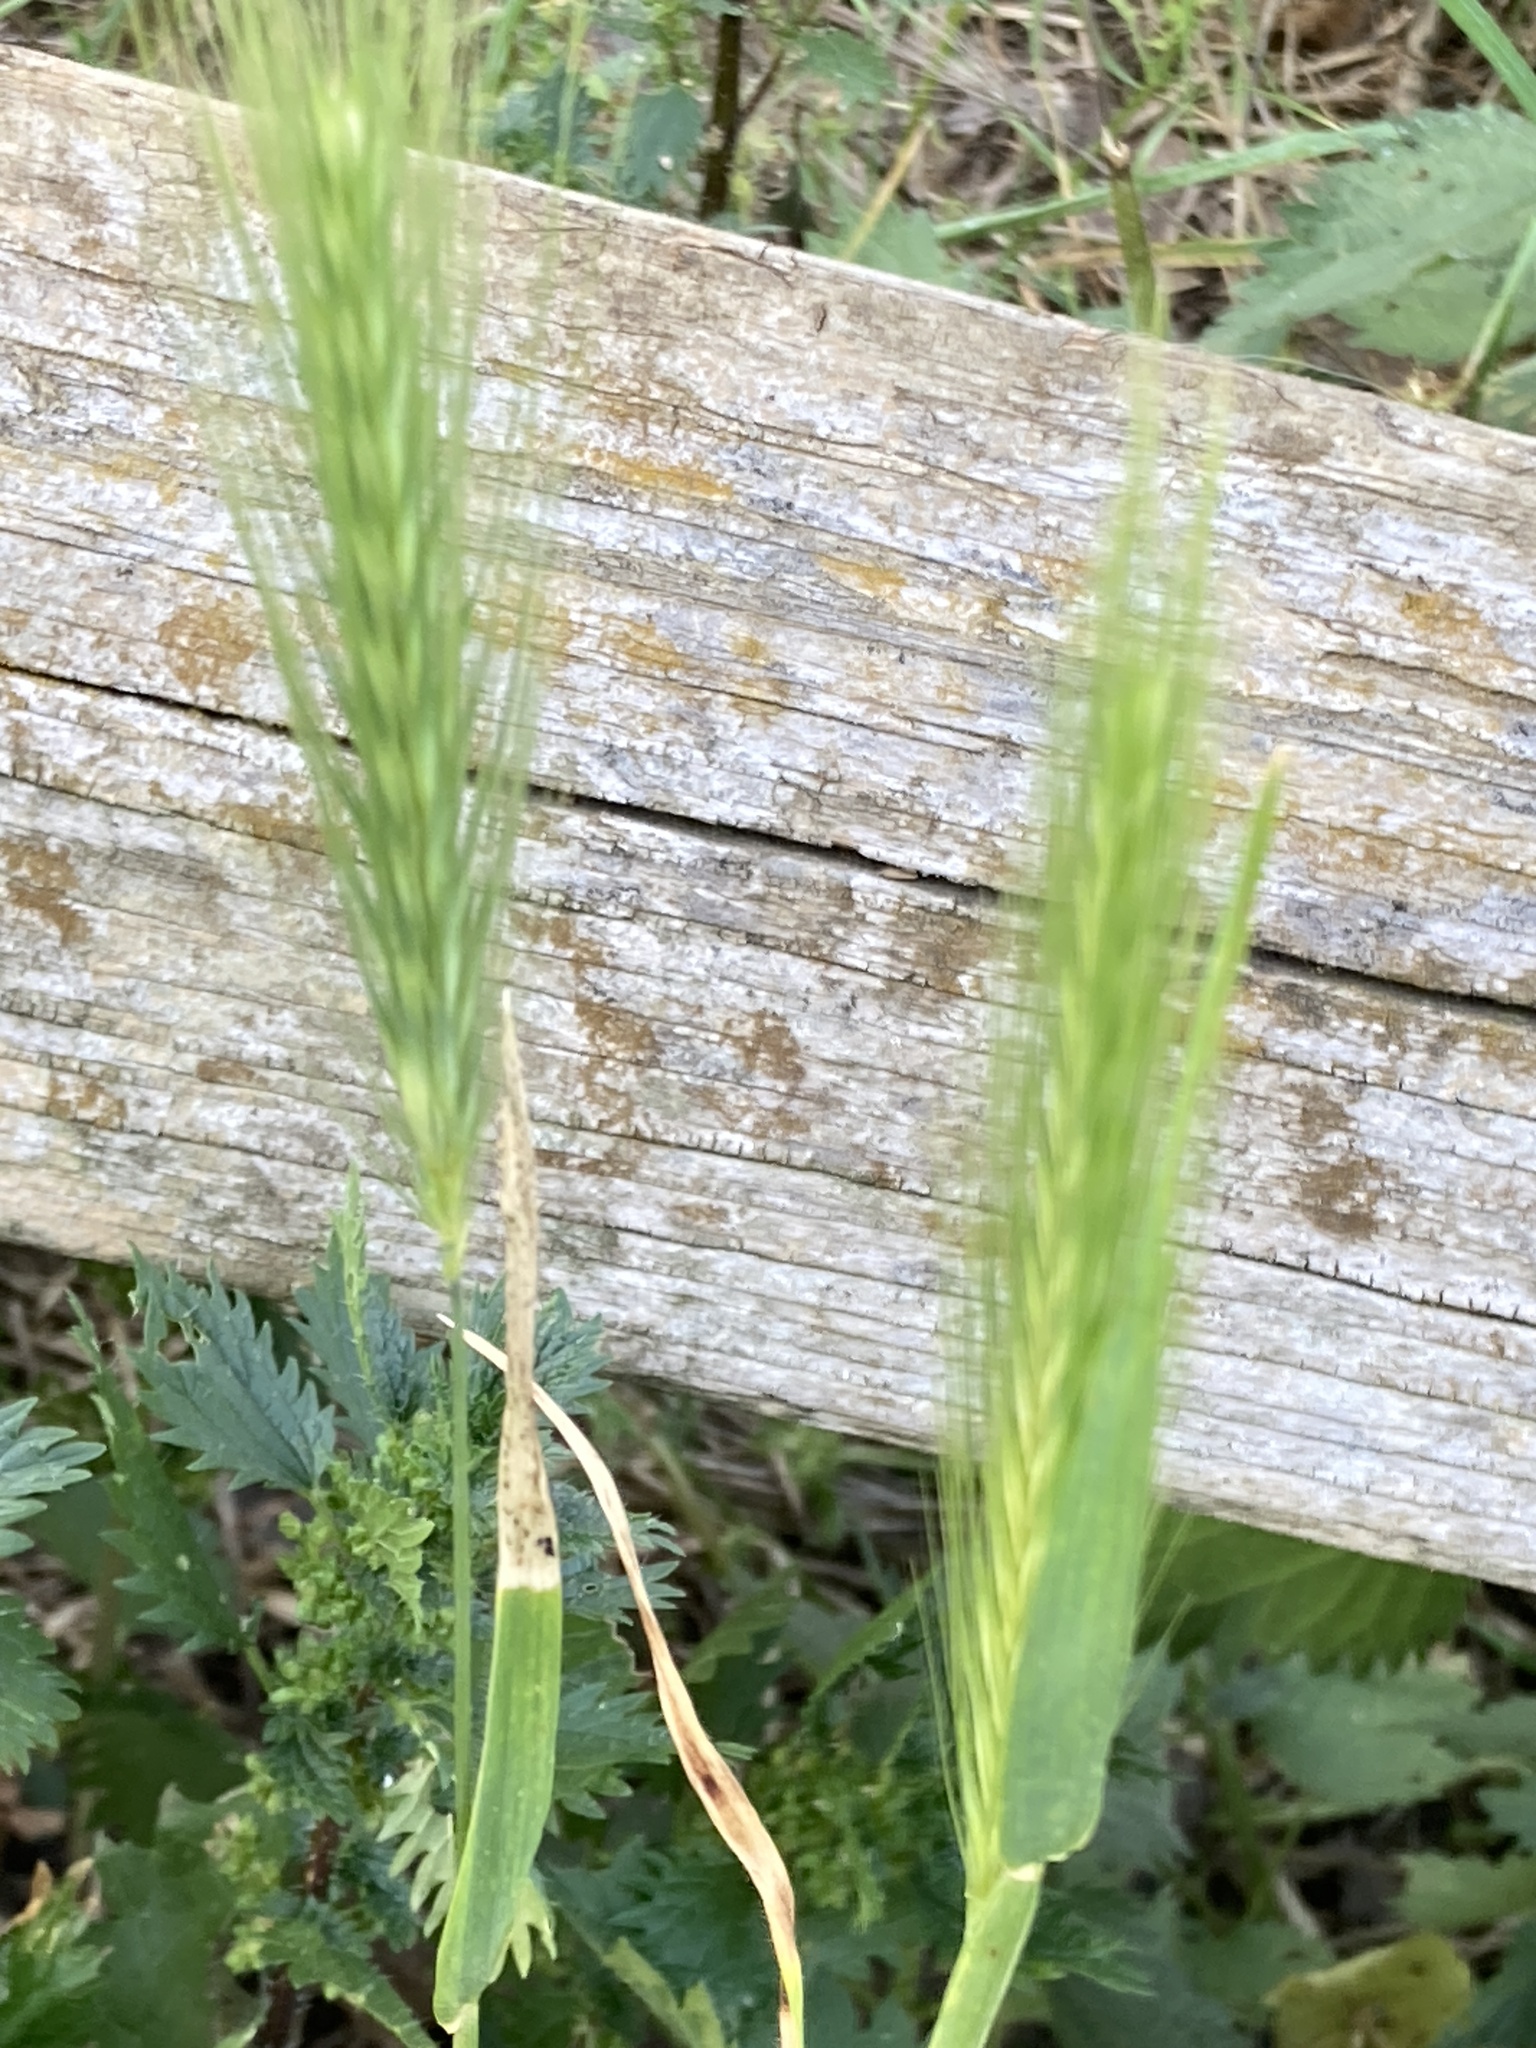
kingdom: Plantae
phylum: Tracheophyta
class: Liliopsida
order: Poales
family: Poaceae
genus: Hordeum
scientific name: Hordeum murinum
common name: Wall barley
